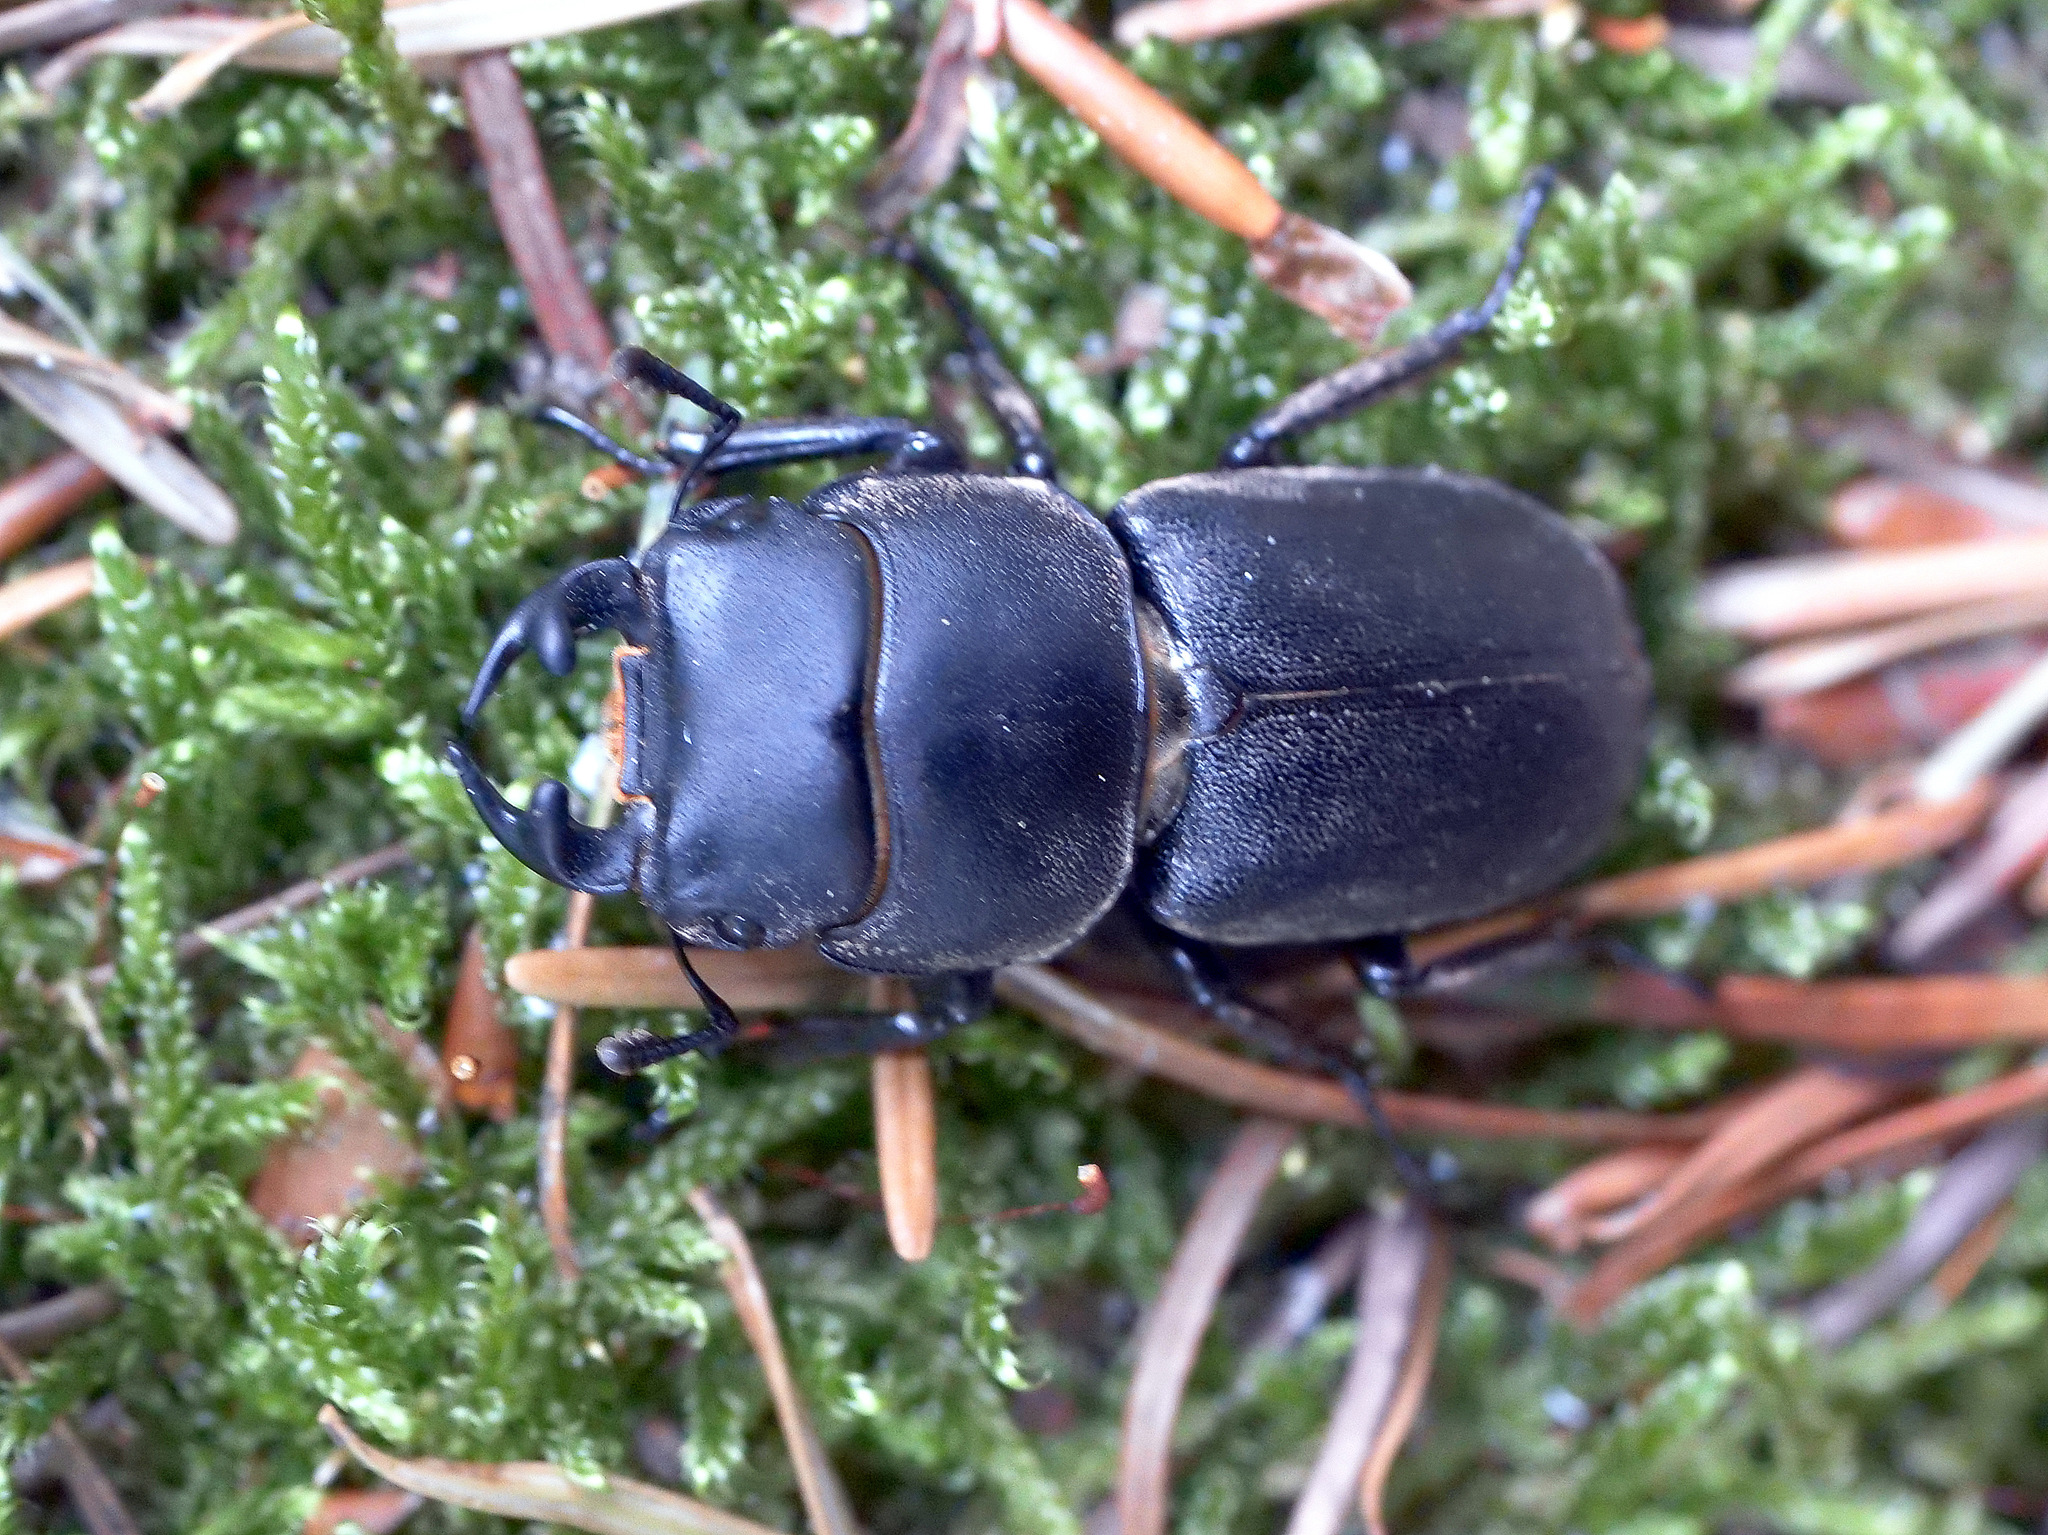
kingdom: Animalia
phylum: Arthropoda
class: Insecta
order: Coleoptera
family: Lucanidae
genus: Dorcus
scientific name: Dorcus parallelipipedus
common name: Lesser stag beetle
